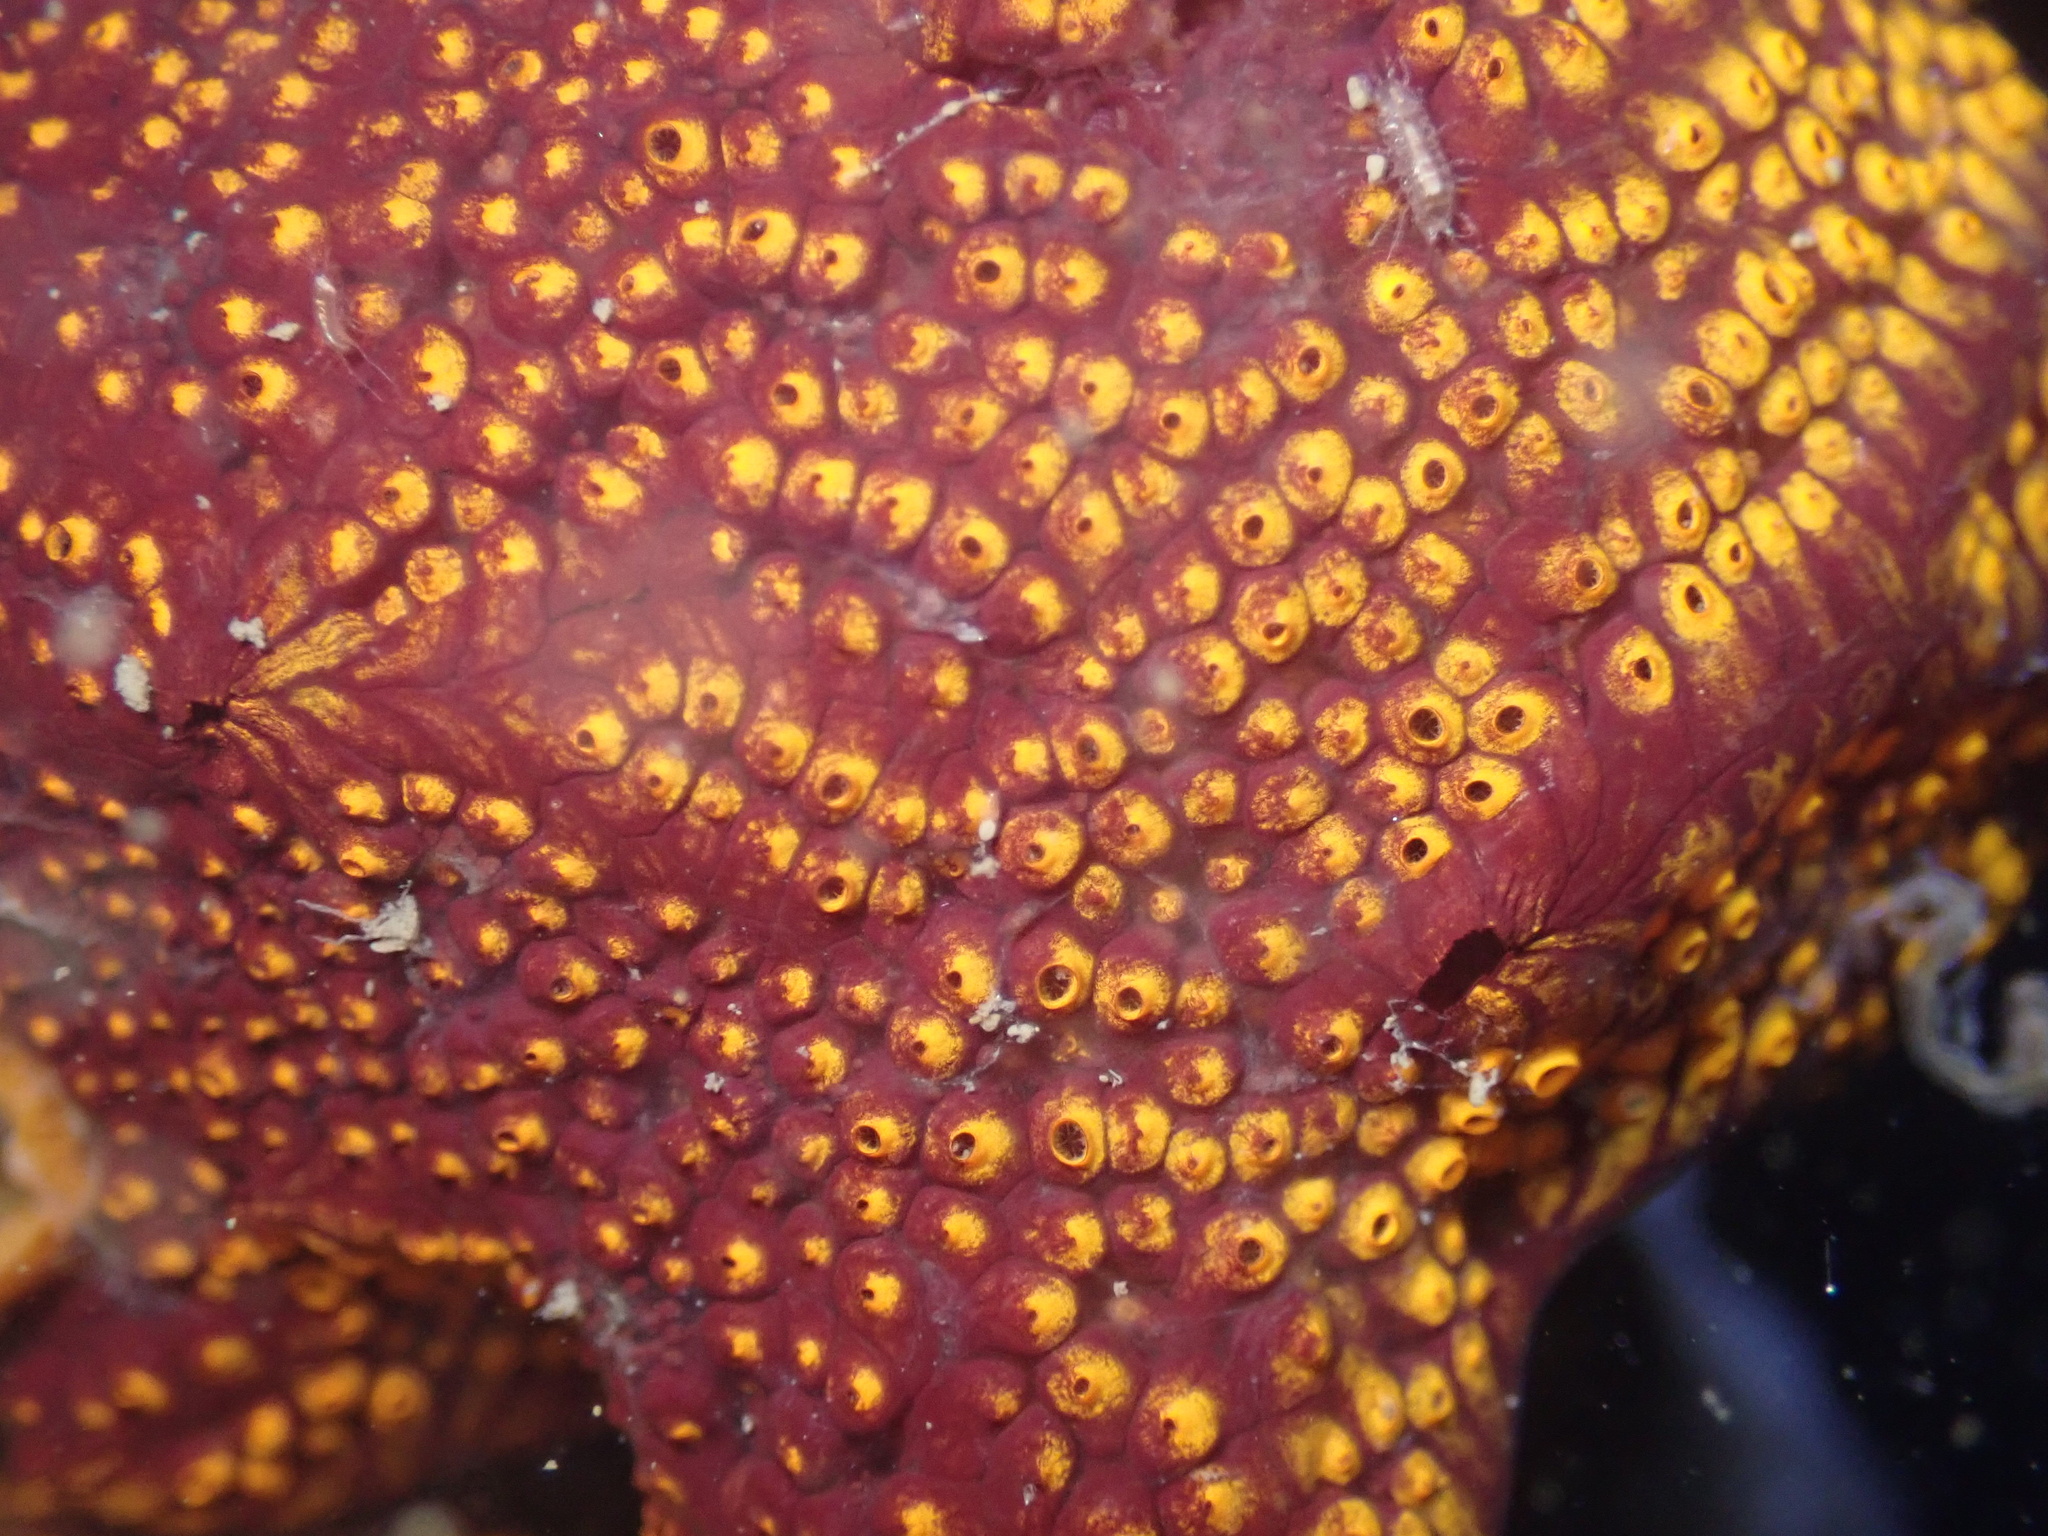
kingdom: Animalia
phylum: Chordata
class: Ascidiacea
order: Stolidobranchia
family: Styelidae
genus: Botrylloides
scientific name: Botrylloides diegensis
